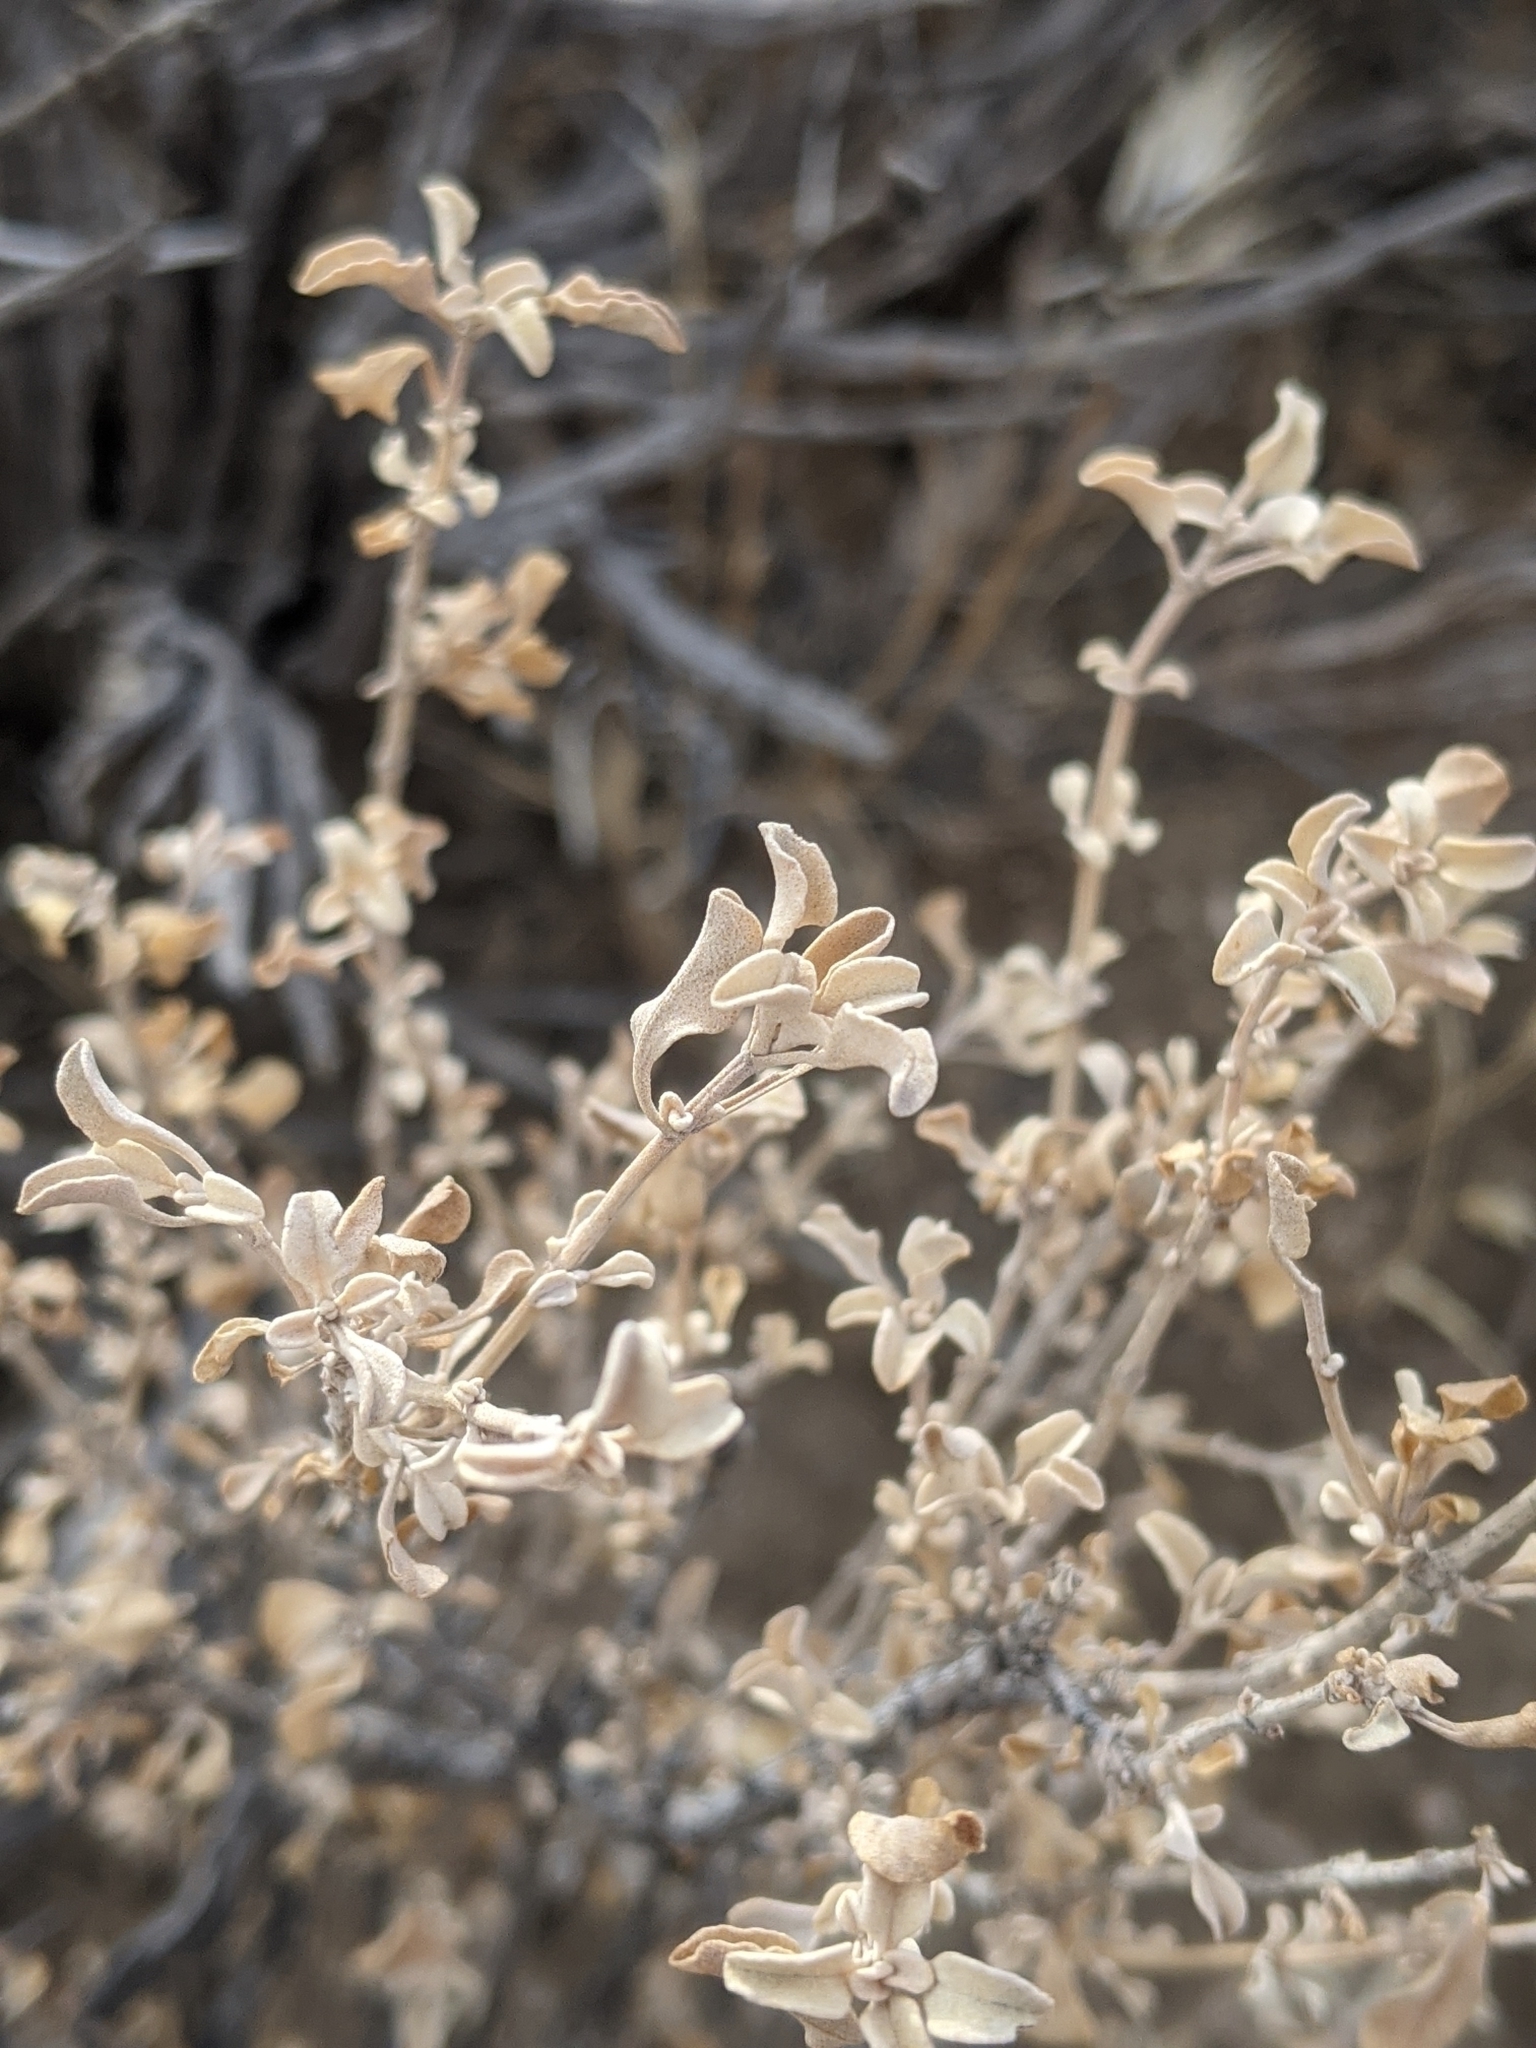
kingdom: Plantae
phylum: Tracheophyta
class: Magnoliopsida
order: Lamiales
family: Lamiaceae
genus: Salvia
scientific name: Salvia dorrii
